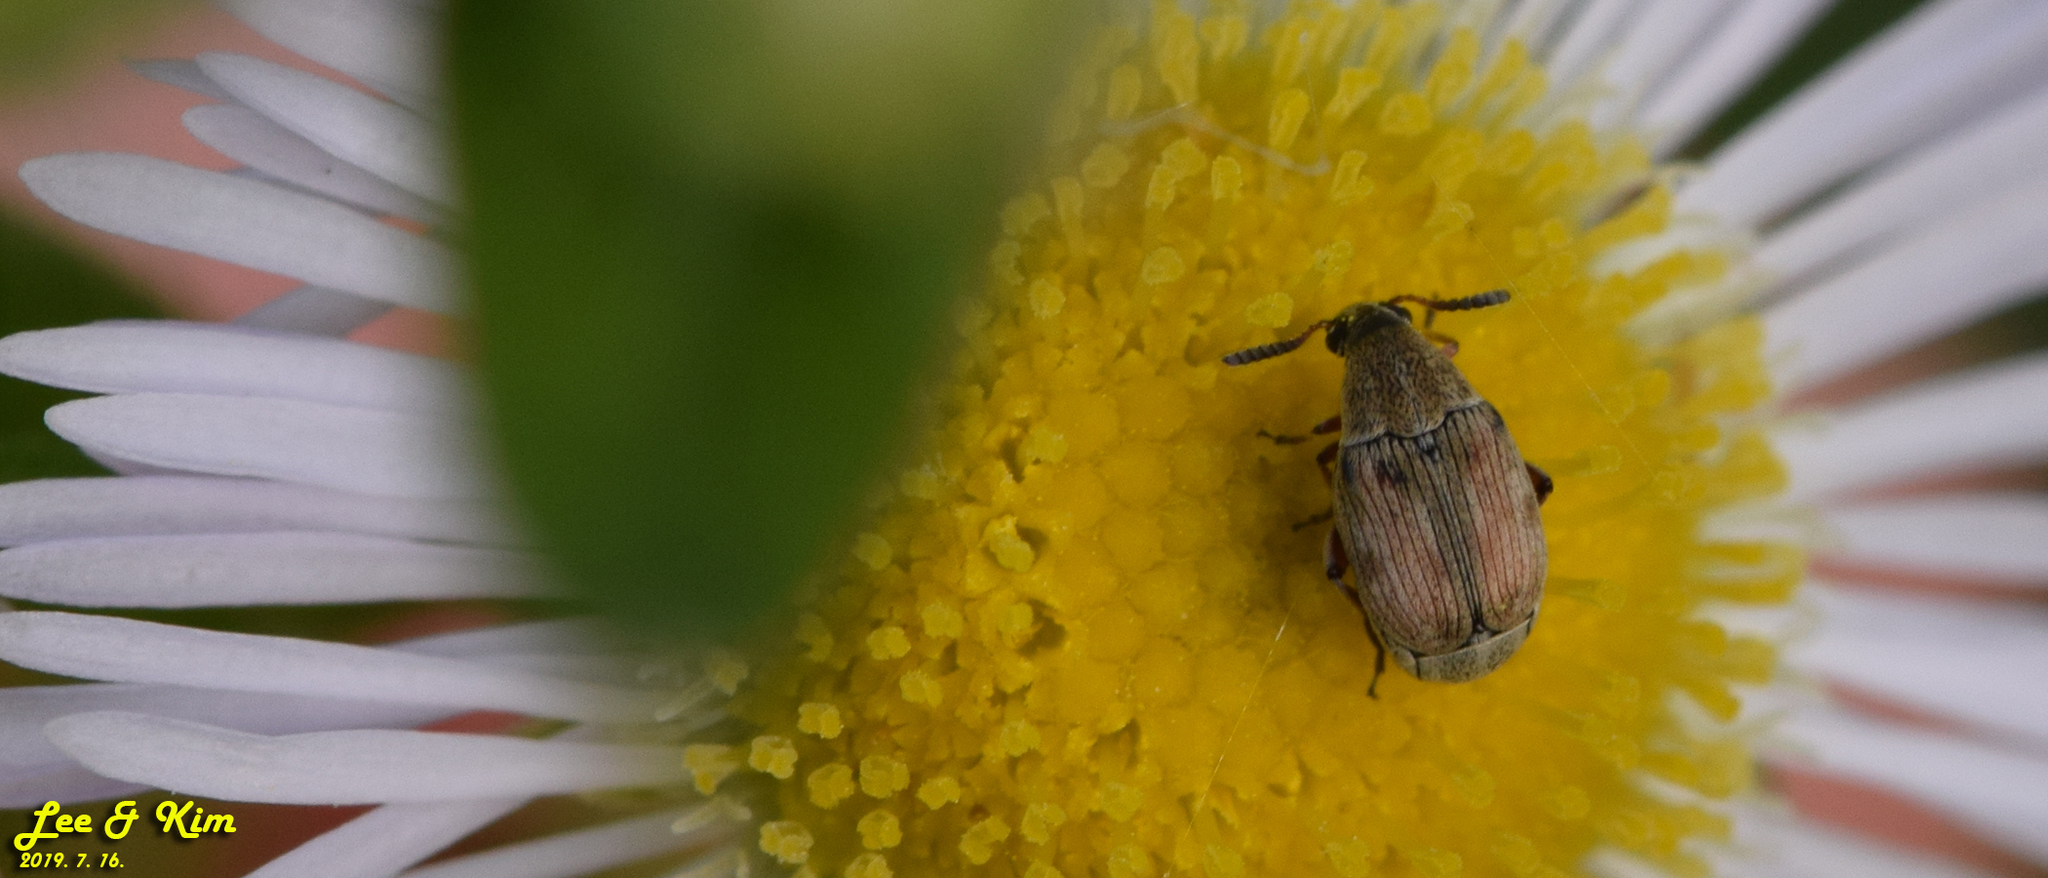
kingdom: Animalia
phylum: Arthropoda
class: Insecta
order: Coleoptera
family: Chrysomelidae
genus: Dactylispa
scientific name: Dactylispa pallidipennis
